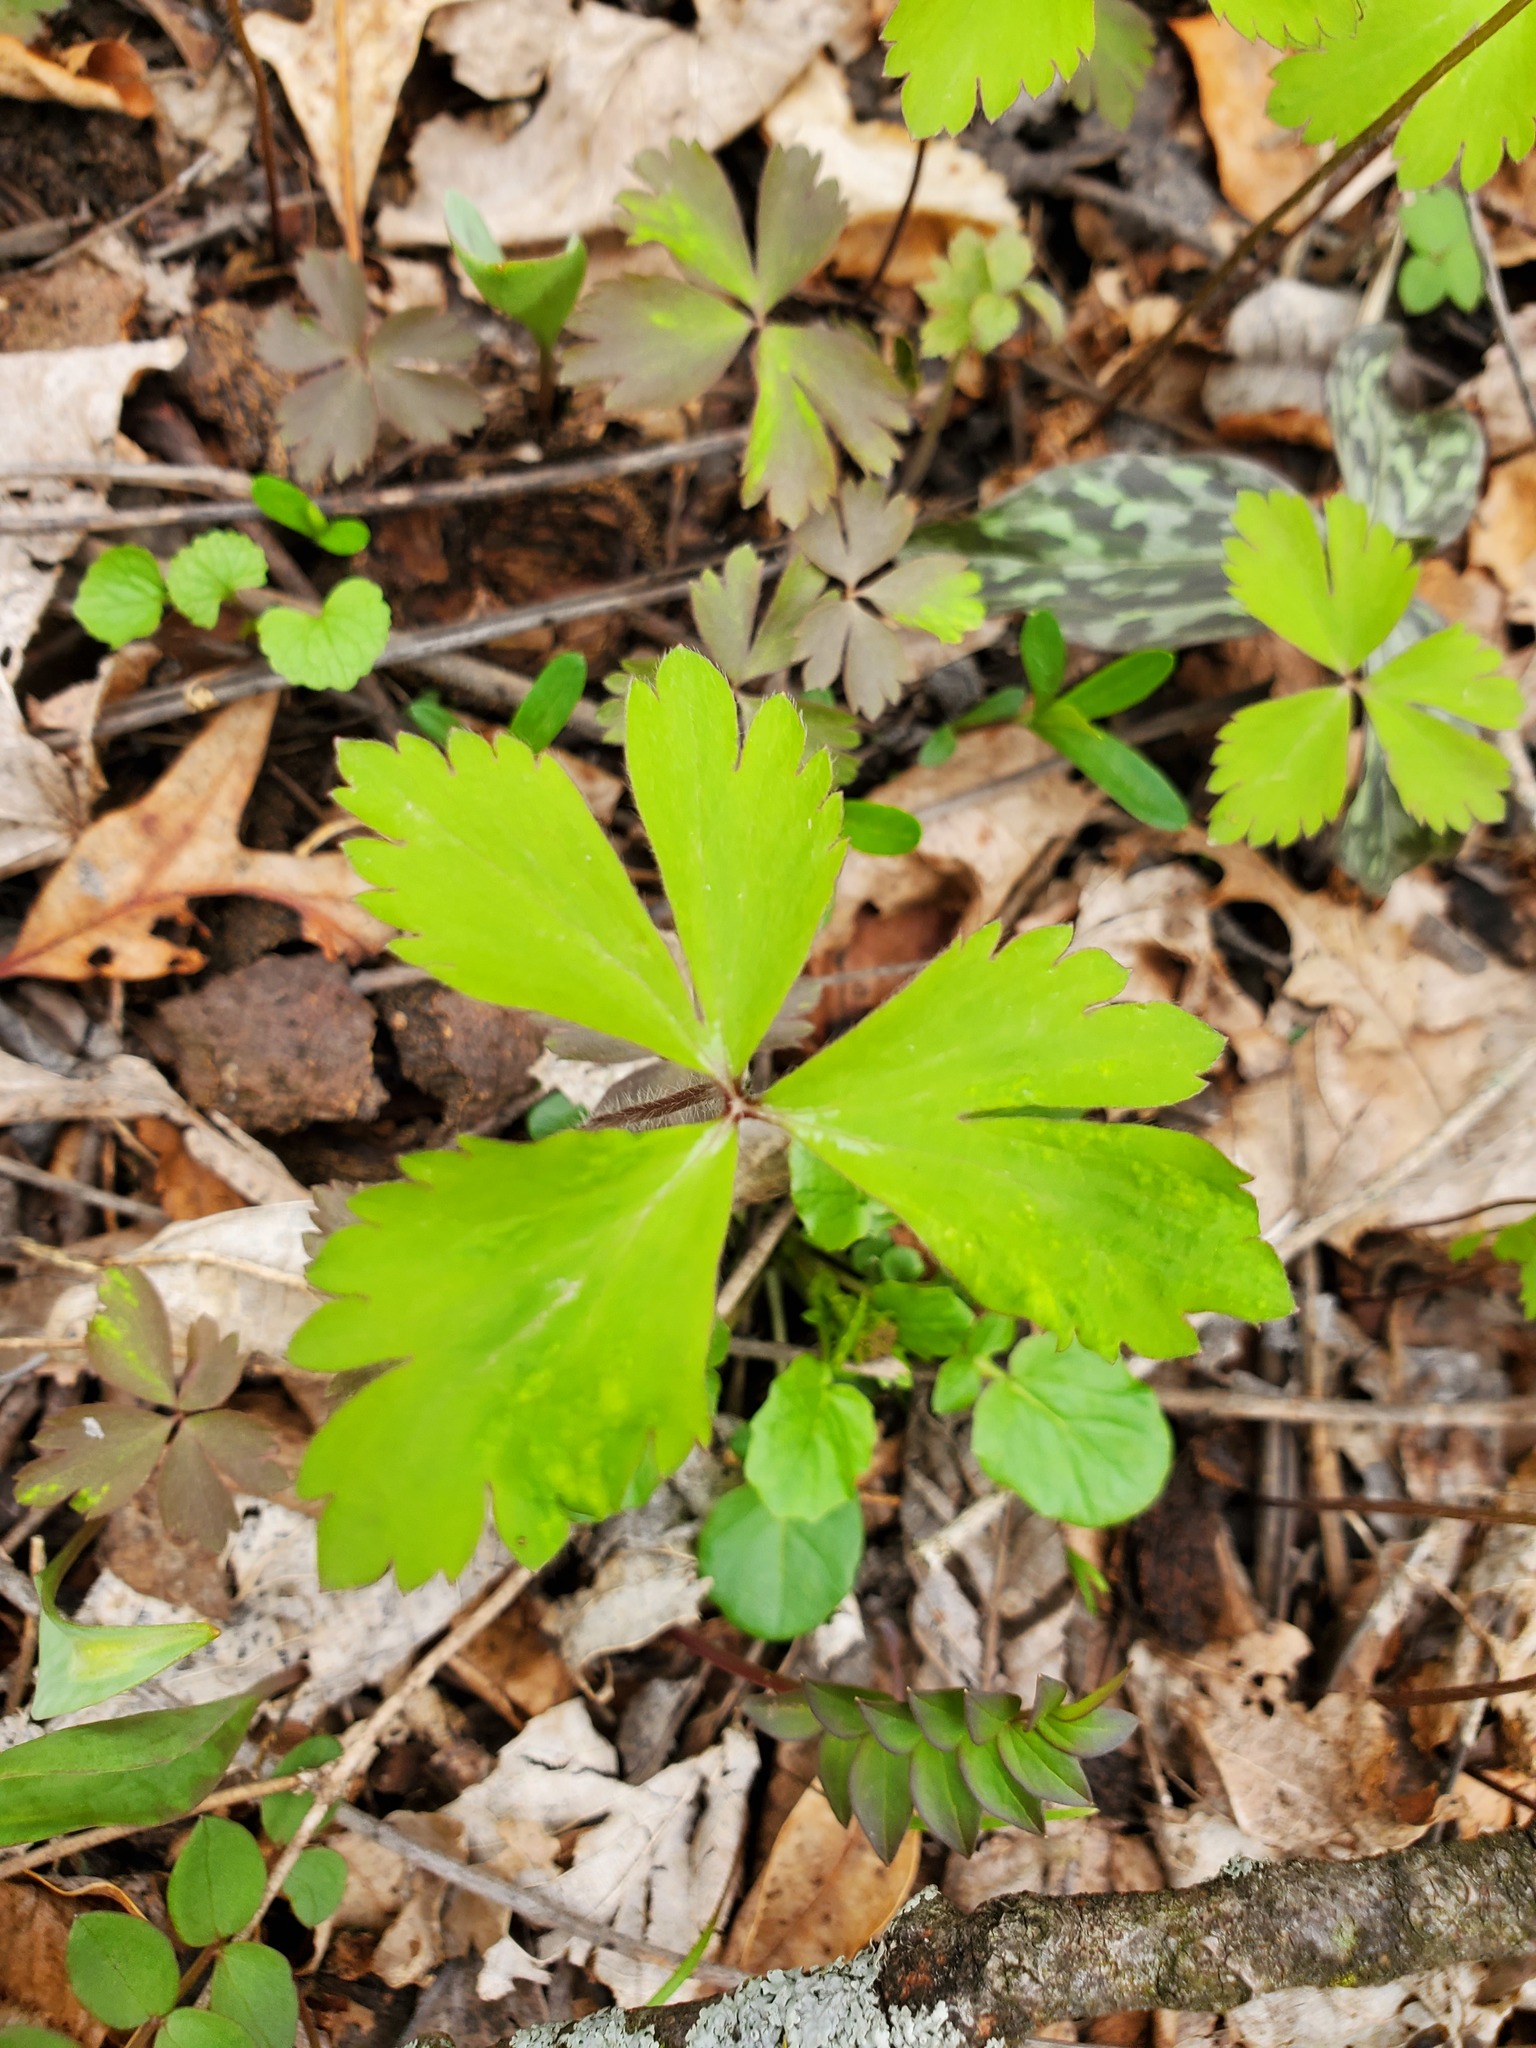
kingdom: Plantae
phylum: Tracheophyta
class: Magnoliopsida
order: Ranunculales
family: Ranunculaceae
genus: Anemone
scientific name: Anemone quinquefolia
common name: Wood anemone
